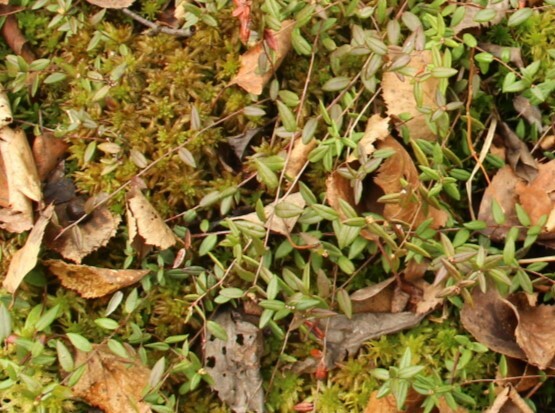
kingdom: Plantae
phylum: Tracheophyta
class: Magnoliopsida
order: Ericales
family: Ericaceae
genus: Vaccinium
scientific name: Vaccinium oxycoccos
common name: Cranberry
